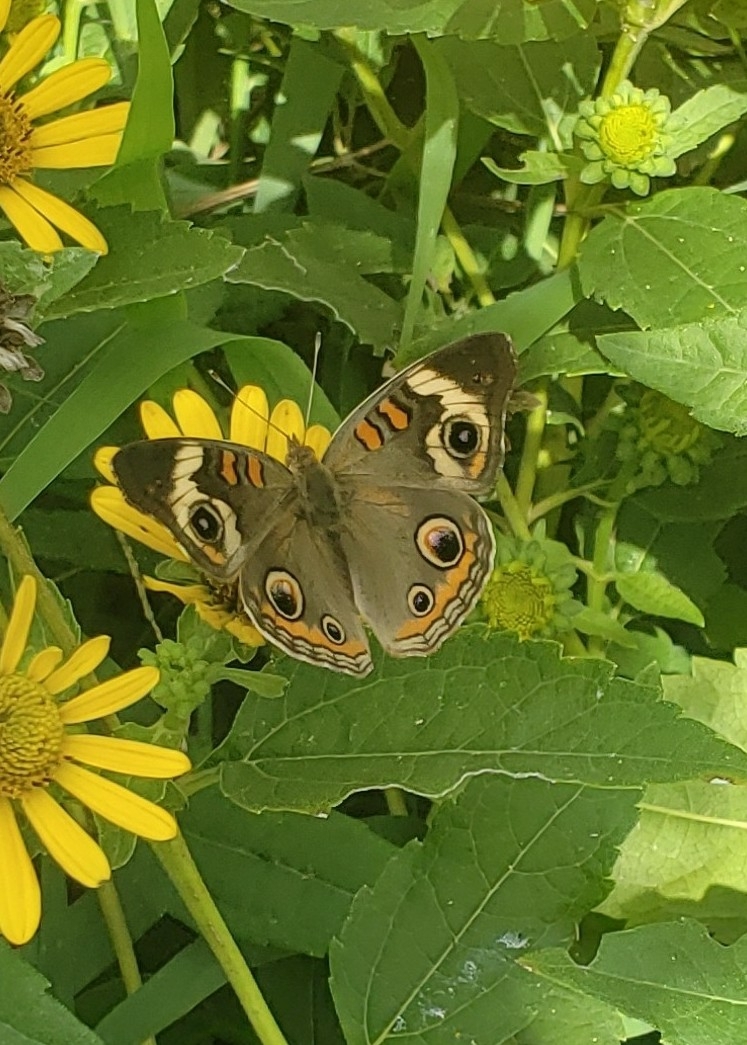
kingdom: Animalia
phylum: Arthropoda
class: Insecta
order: Lepidoptera
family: Nymphalidae
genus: Junonia
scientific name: Junonia coenia
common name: Common buckeye
